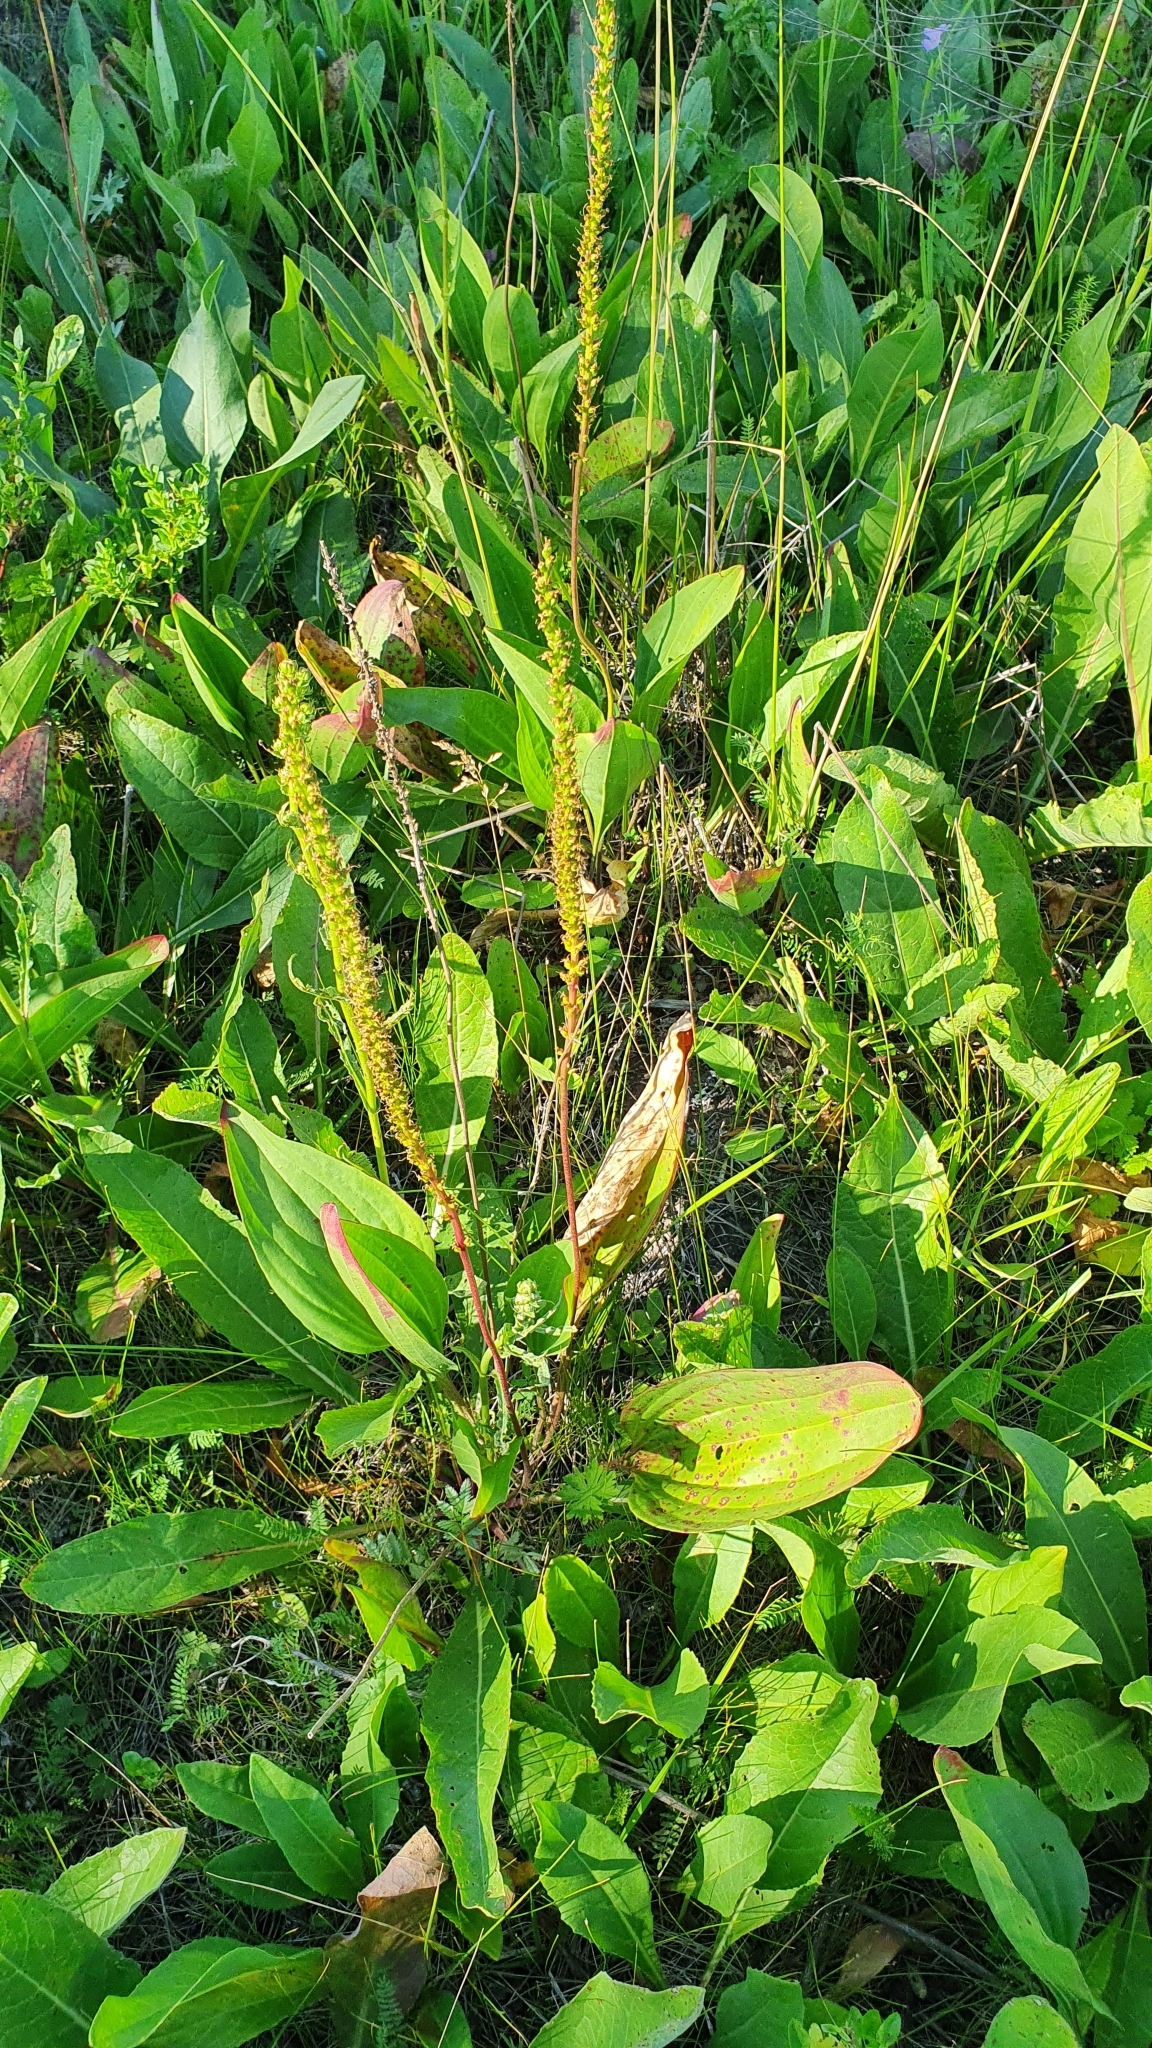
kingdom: Plantae
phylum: Tracheophyta
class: Magnoliopsida
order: Lamiales
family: Plantaginaceae
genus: Plantago
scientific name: Plantago cornuti
